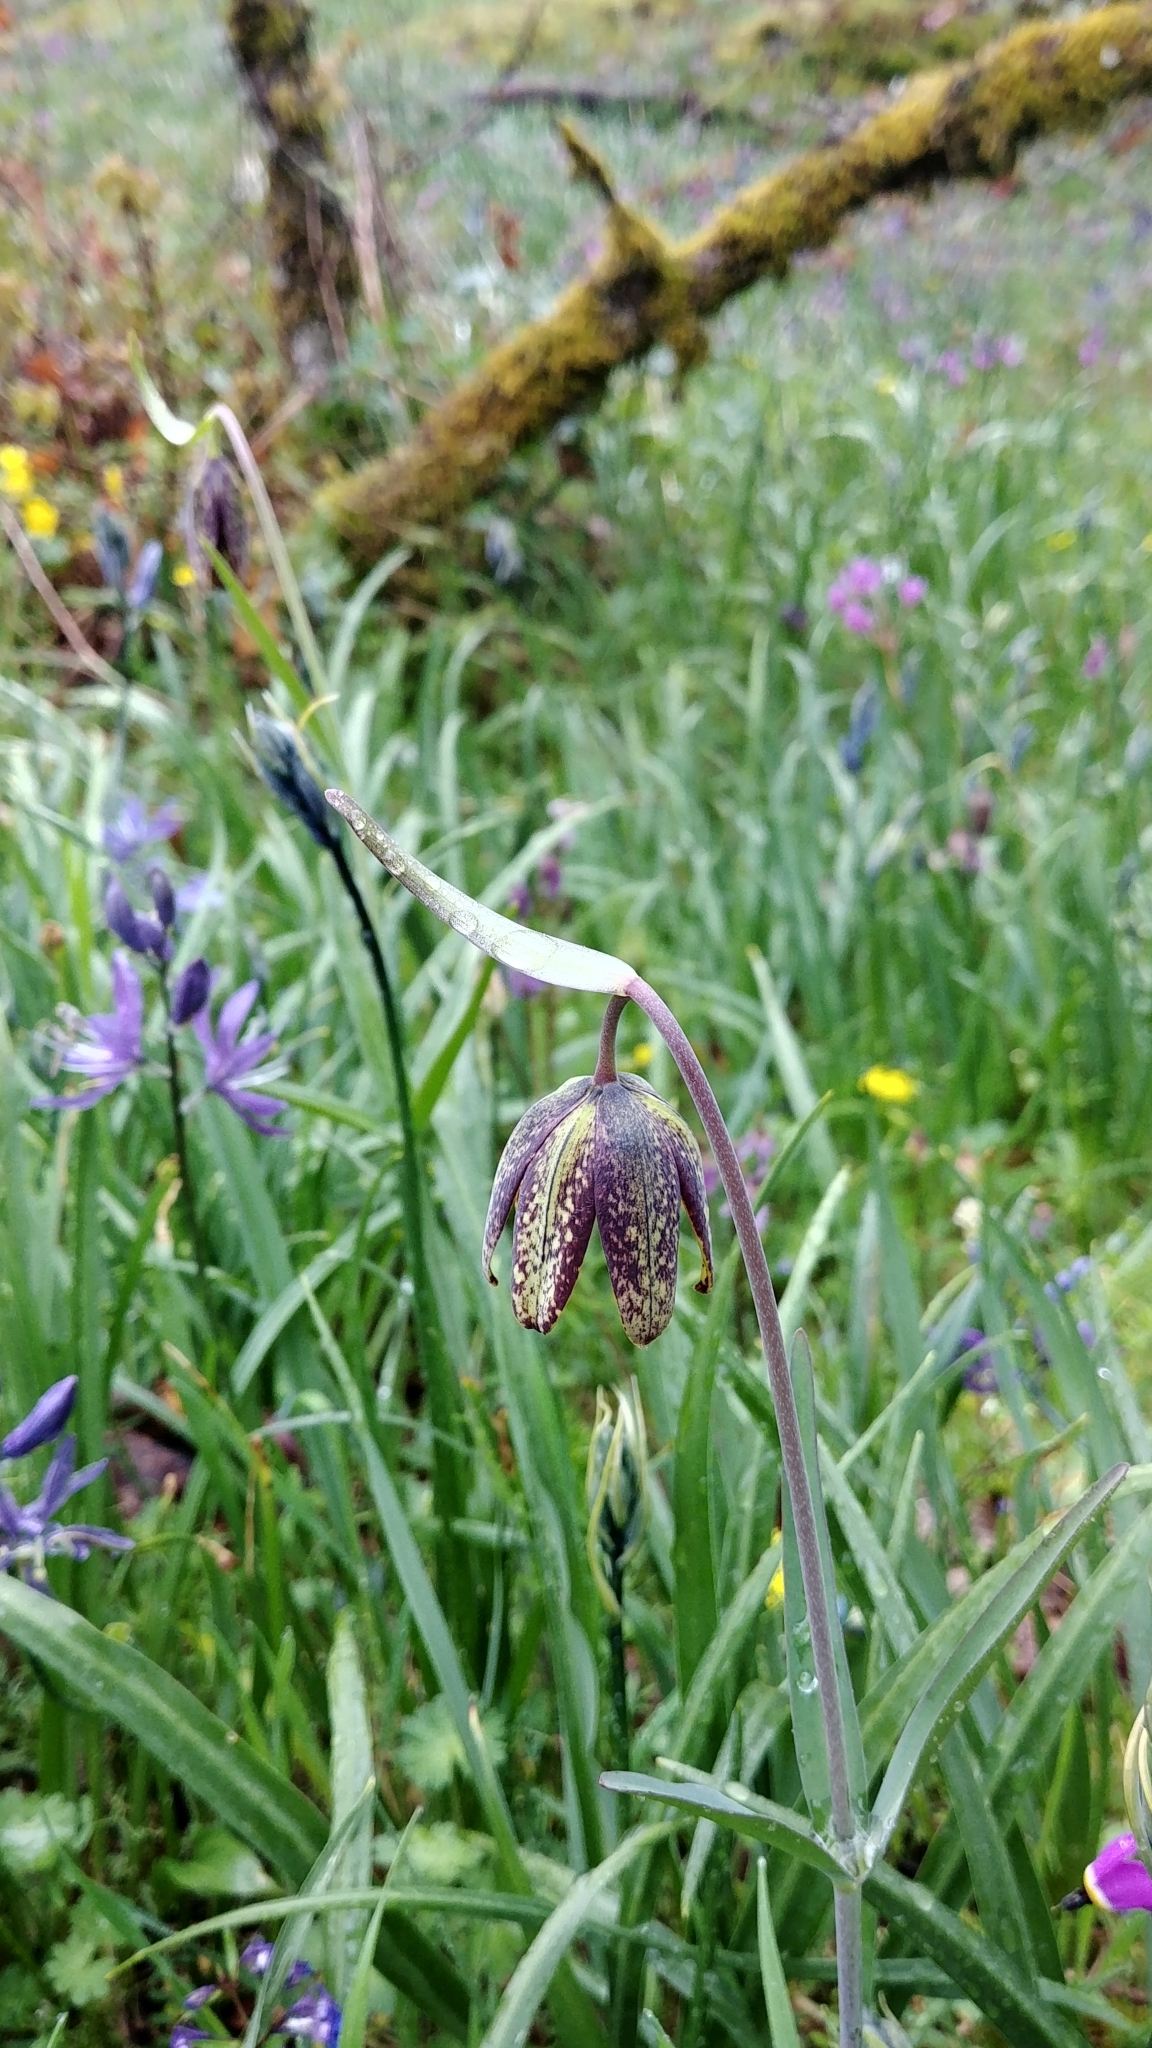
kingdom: Plantae
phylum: Tracheophyta
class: Liliopsida
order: Liliales
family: Liliaceae
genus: Fritillaria
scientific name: Fritillaria affinis
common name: Ojai fritillary
